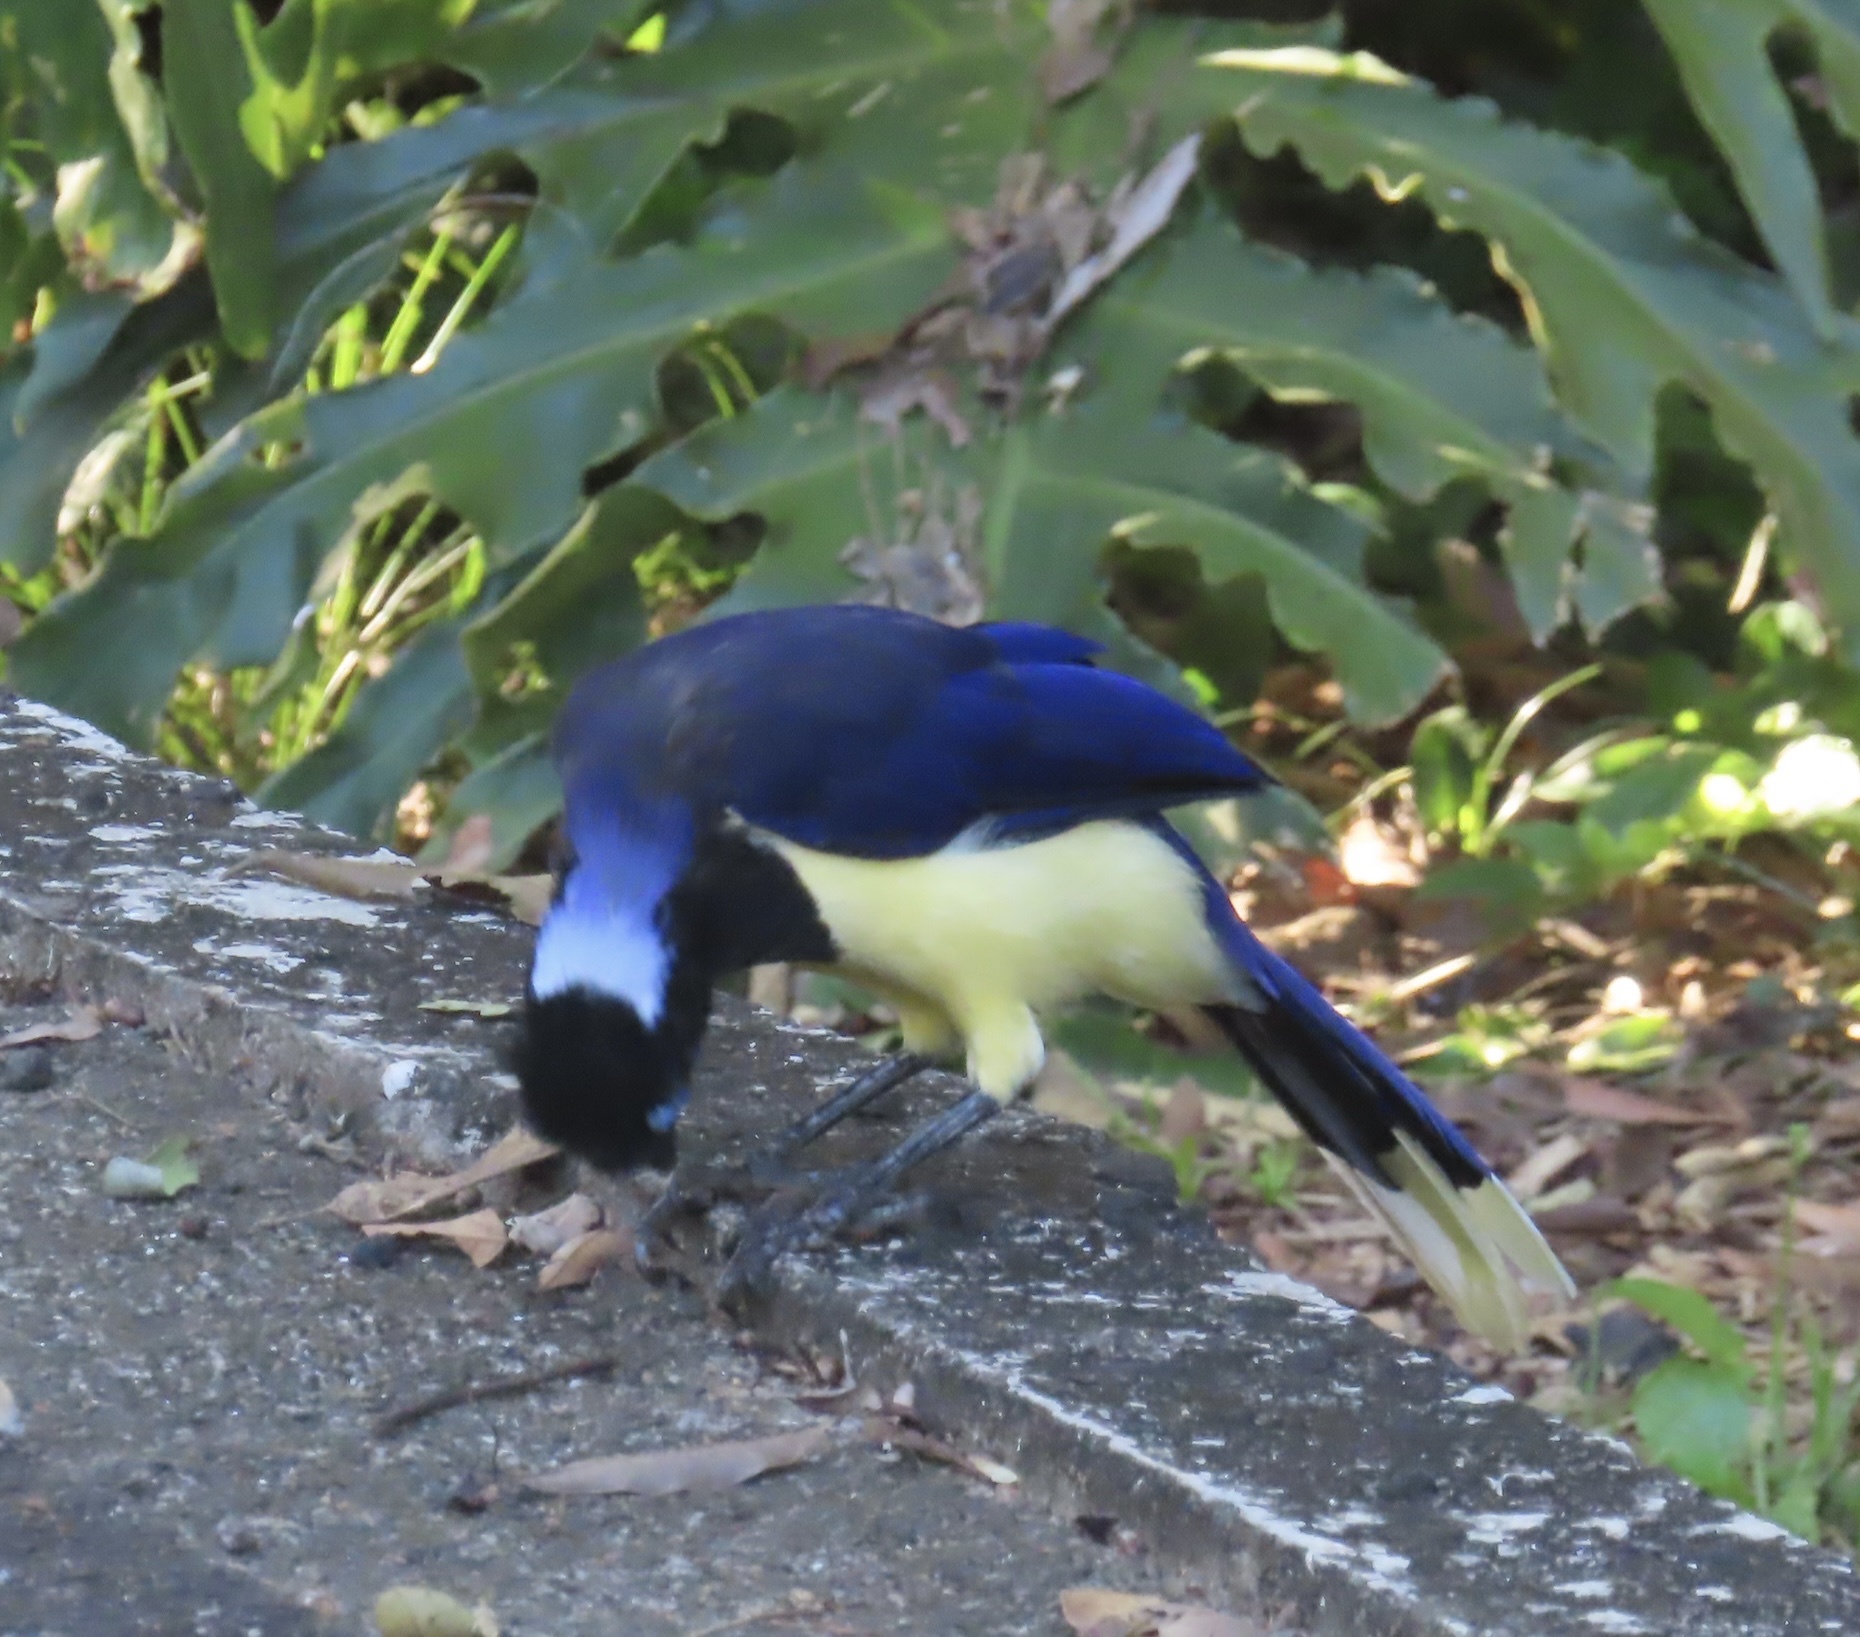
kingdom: Animalia
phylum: Chordata
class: Aves
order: Passeriformes
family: Corvidae
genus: Cyanocorax
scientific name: Cyanocorax chrysops
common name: Plush-crested jay
